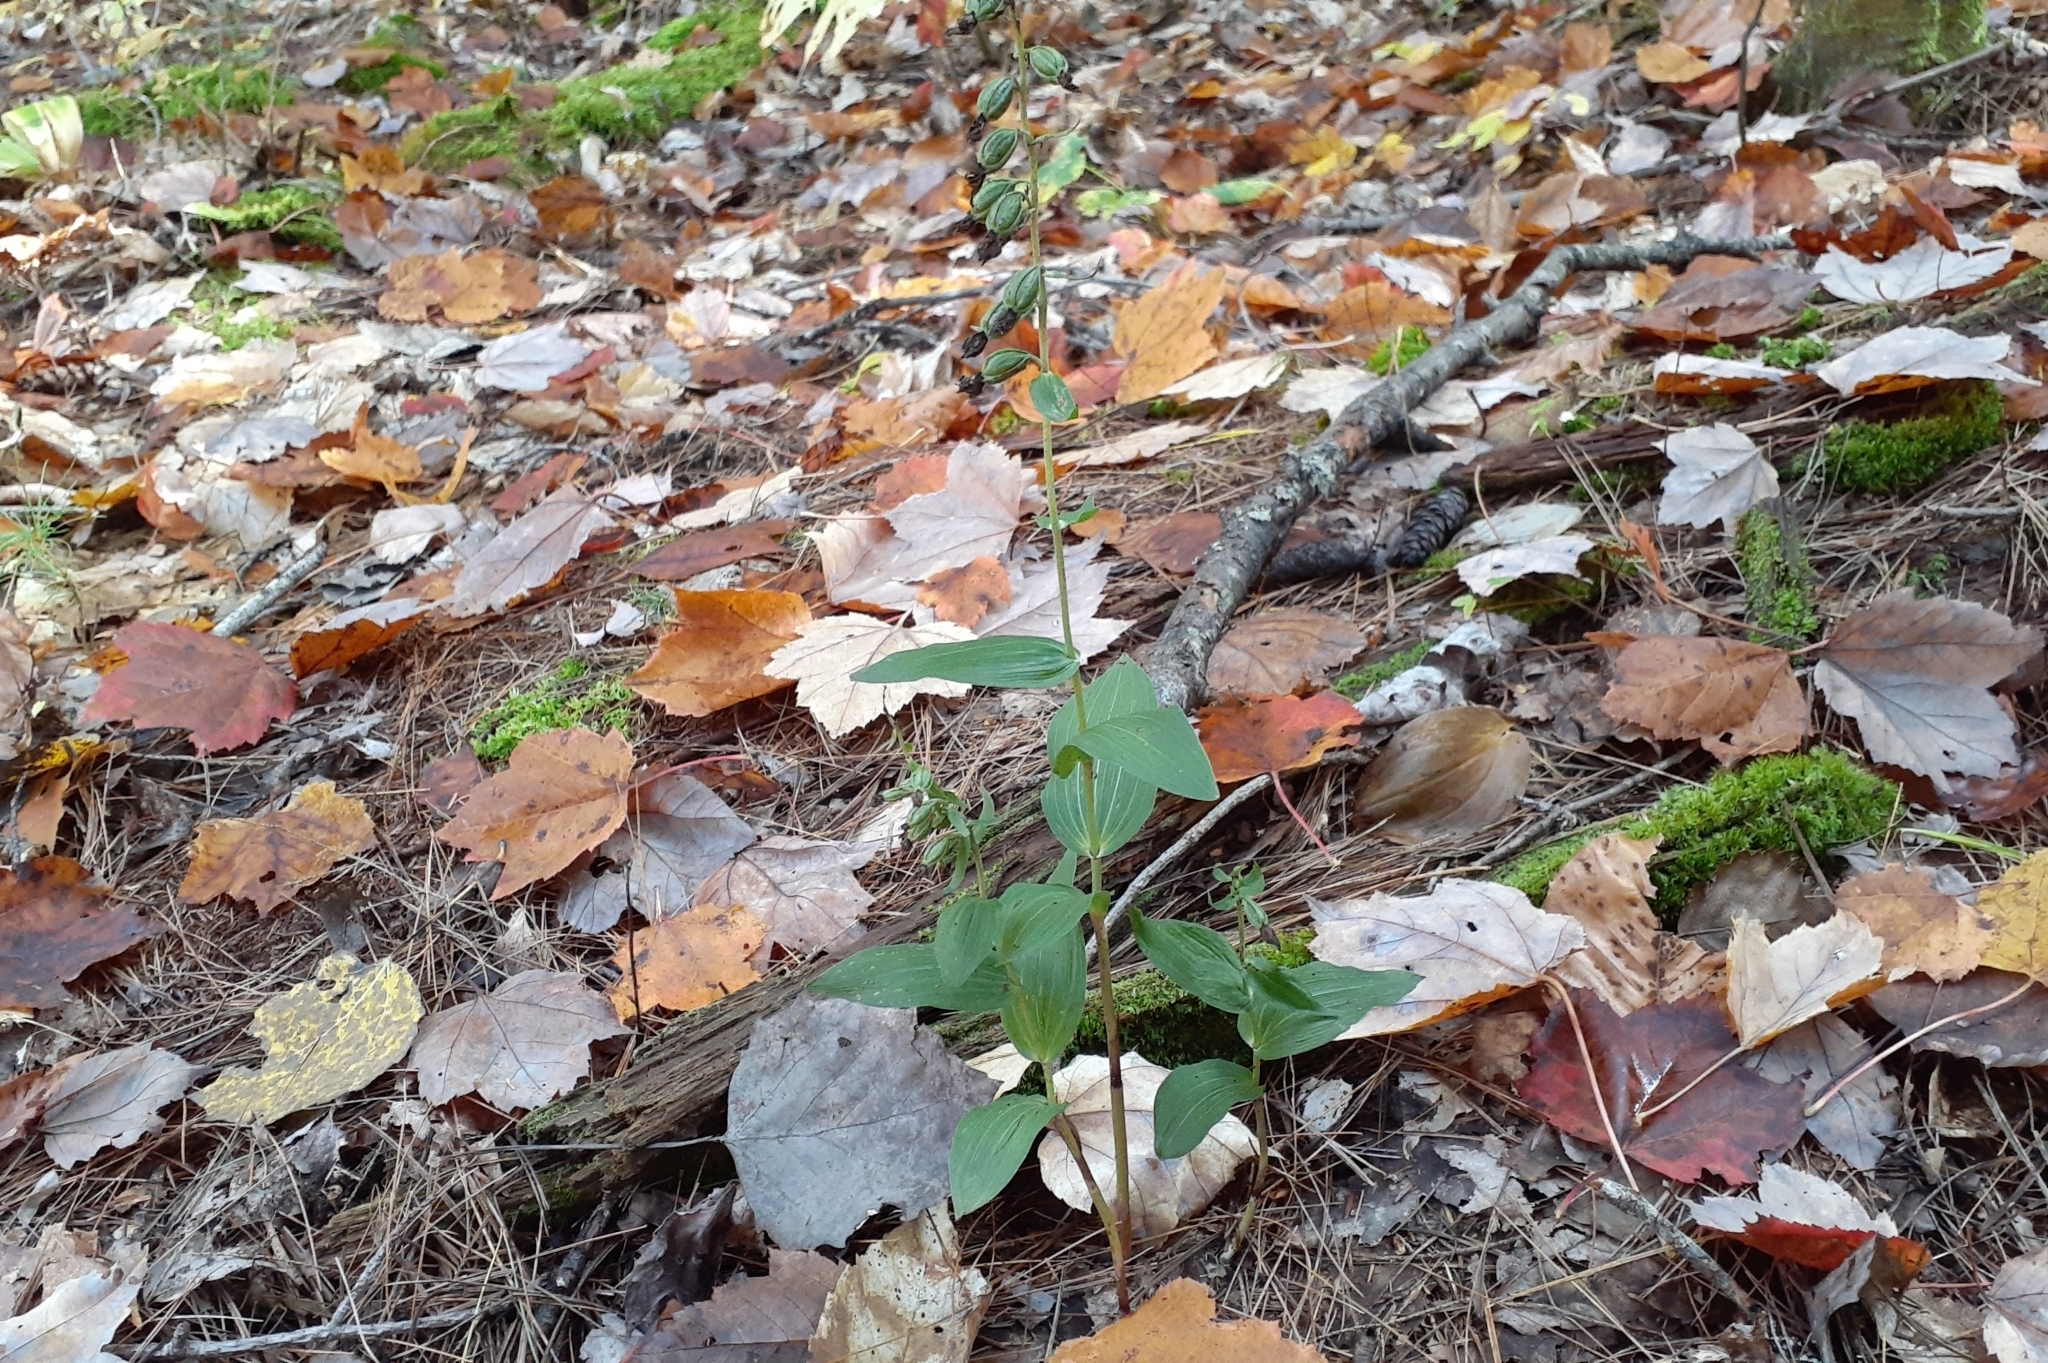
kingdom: Plantae
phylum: Tracheophyta
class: Liliopsida
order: Asparagales
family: Orchidaceae
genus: Epipactis
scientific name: Epipactis helleborine
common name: Broad-leaved helleborine
